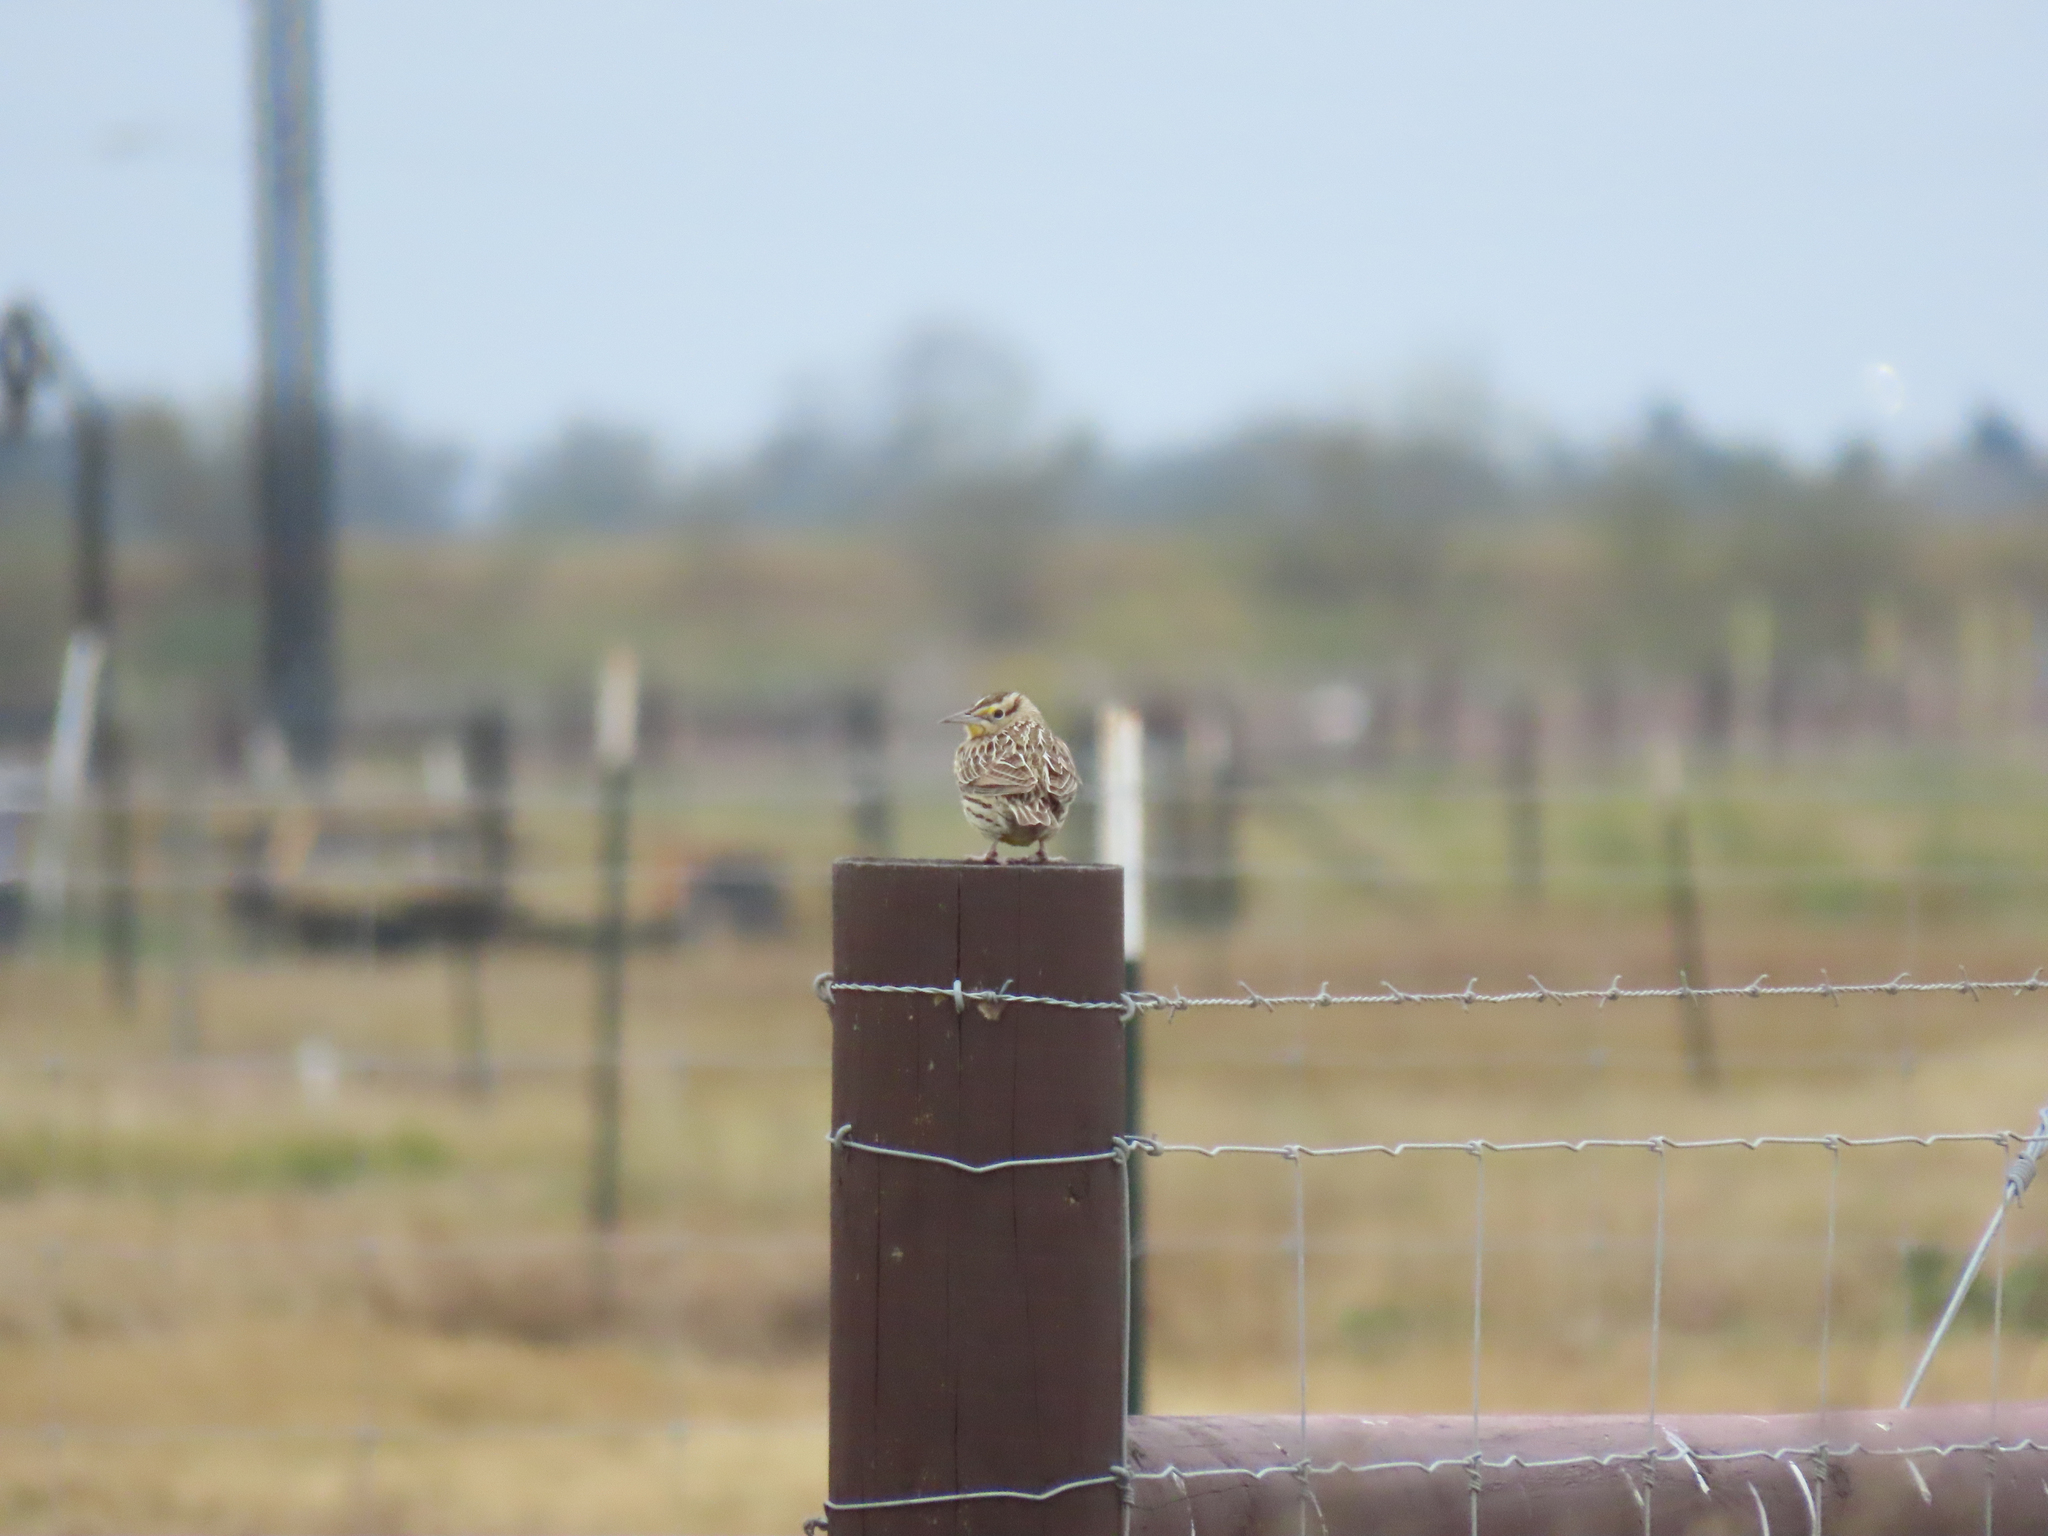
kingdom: Animalia
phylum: Chordata
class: Aves
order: Passeriformes
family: Icteridae
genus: Sturnella
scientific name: Sturnella magna
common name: Eastern meadowlark
